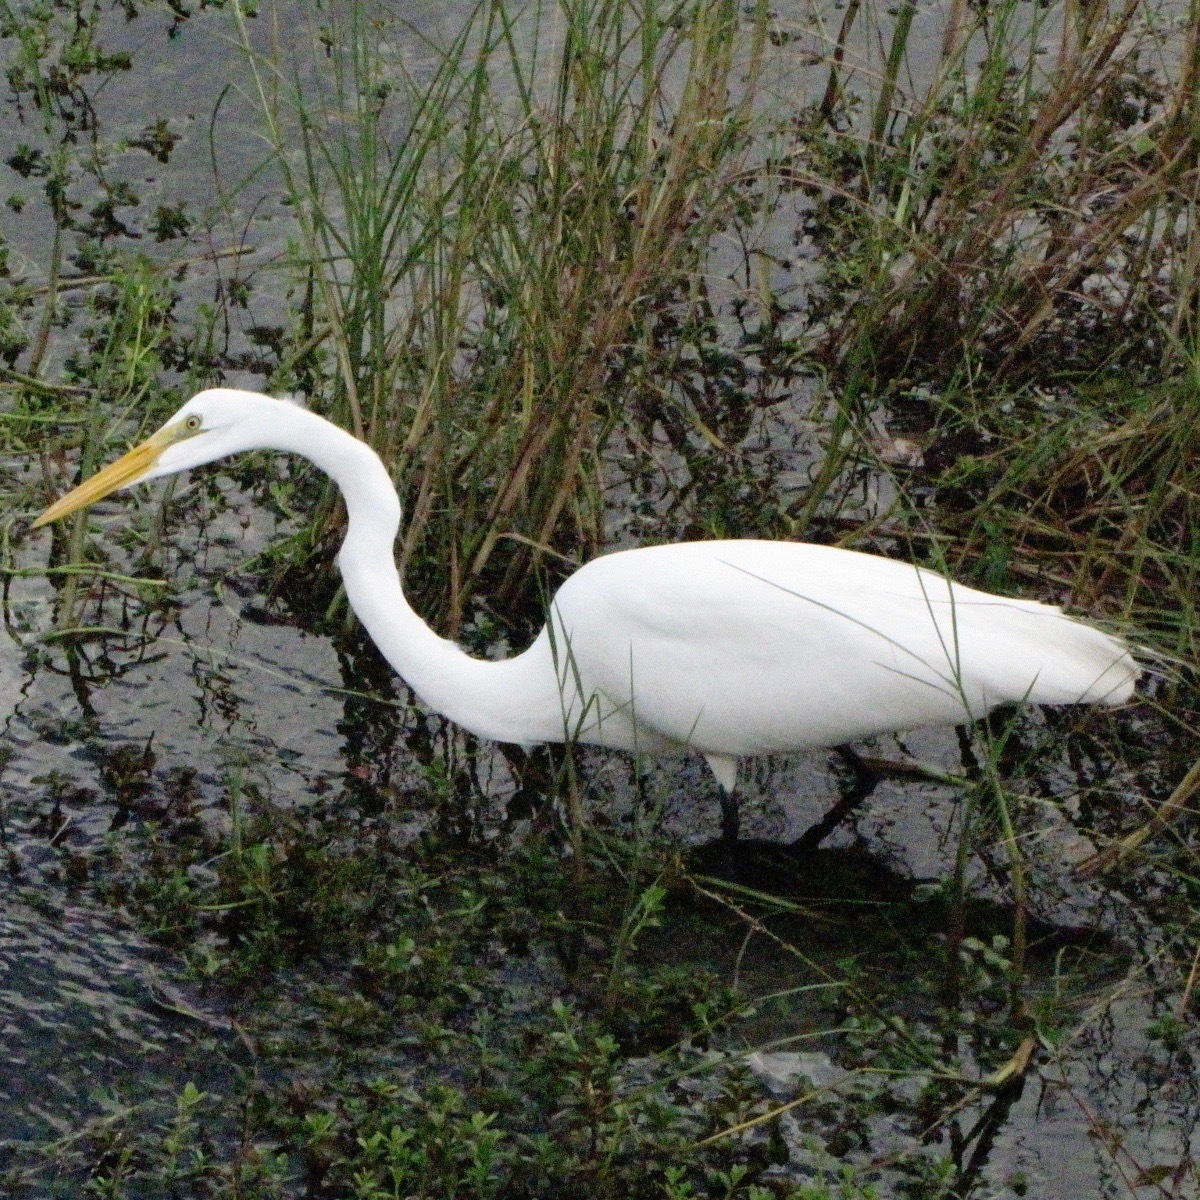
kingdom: Animalia
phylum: Chordata
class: Aves
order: Pelecaniformes
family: Ardeidae
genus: Ardea
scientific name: Ardea alba
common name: Great egret
